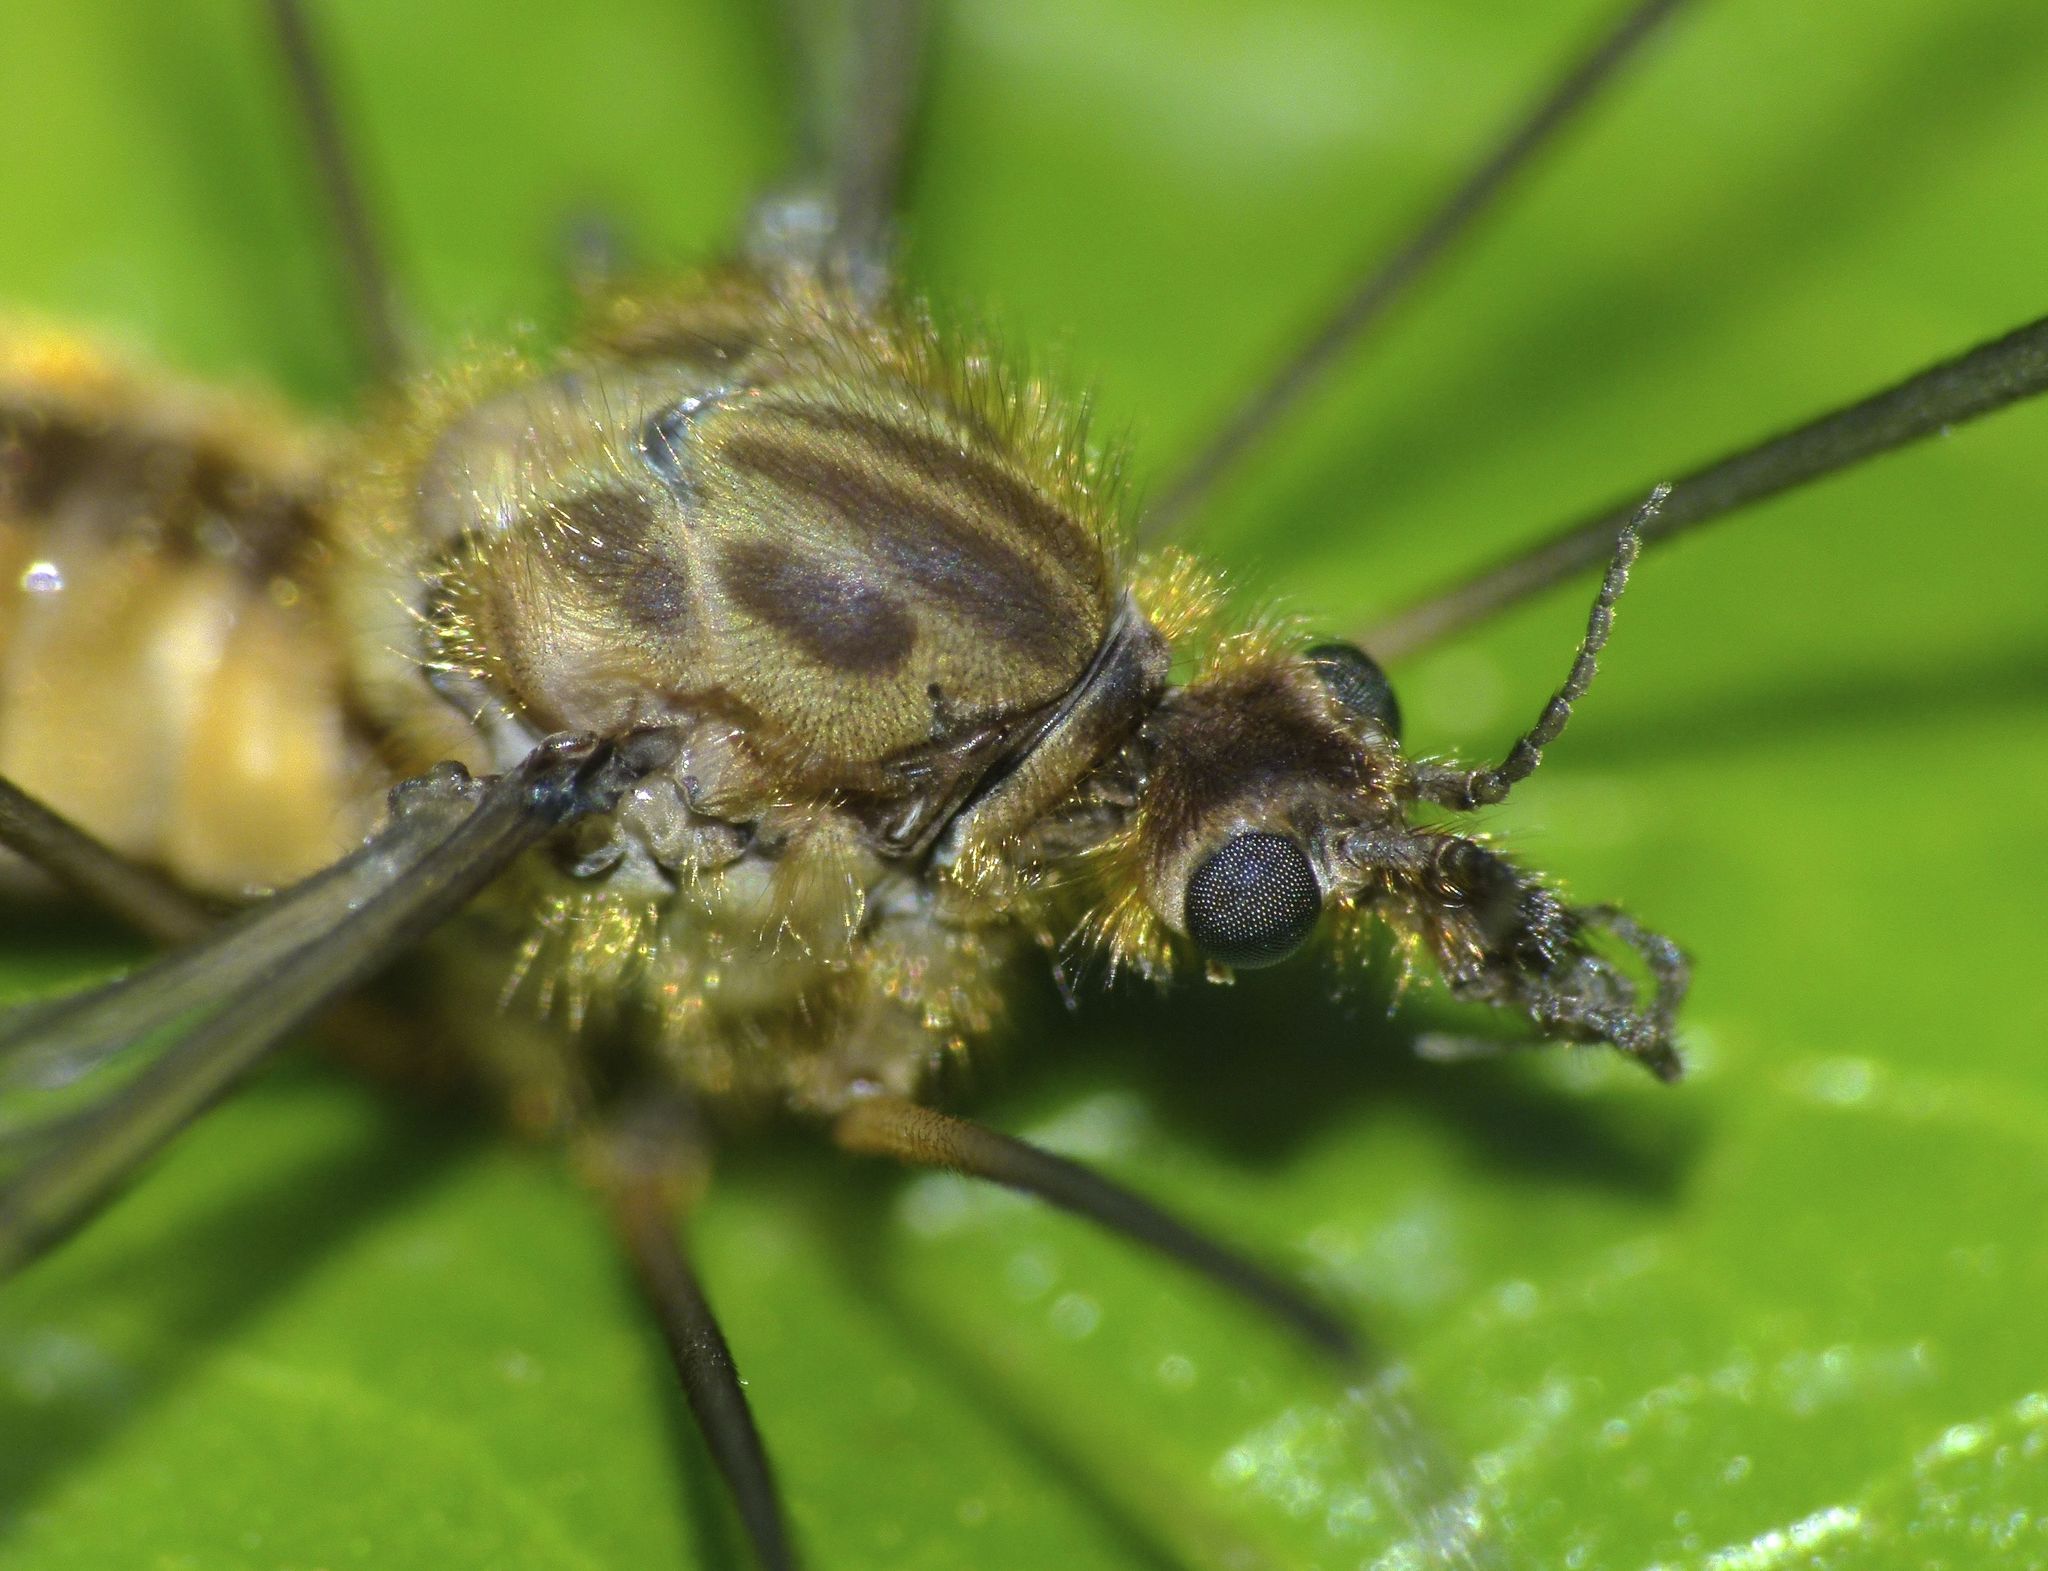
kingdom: Animalia
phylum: Arthropoda
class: Insecta
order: Diptera
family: Tipulidae
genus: Leptotarsus
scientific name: Leptotarsus submontanus
